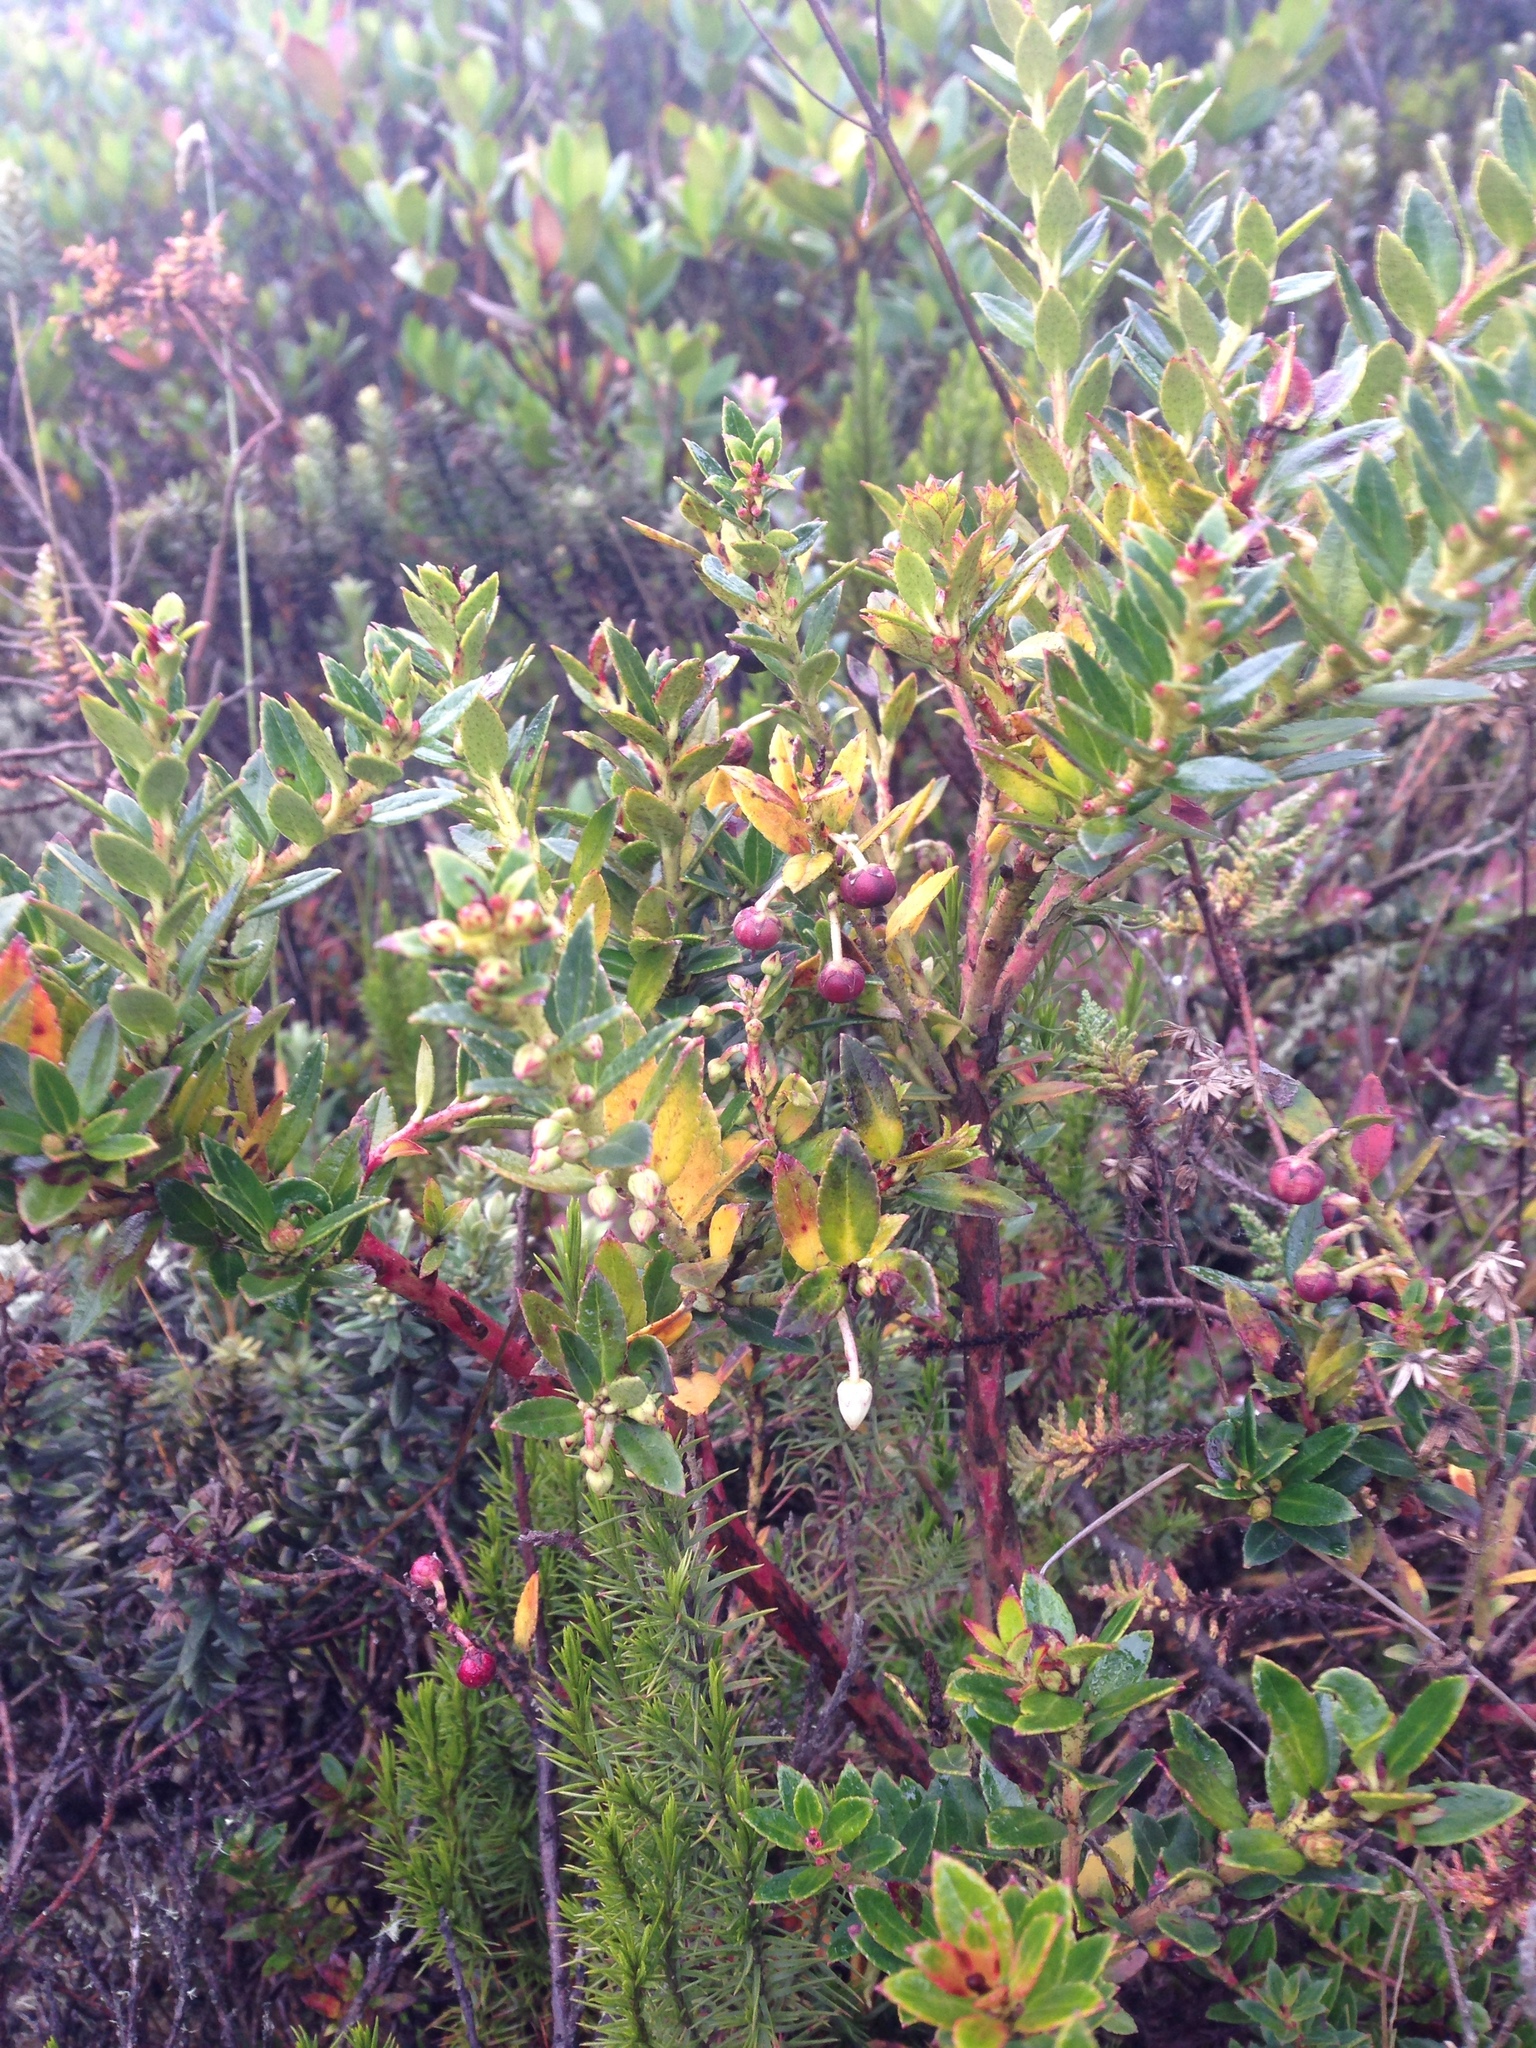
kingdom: Plantae
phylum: Tracheophyta
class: Magnoliopsida
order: Ericales
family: Ericaceae
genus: Gaultheria
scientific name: Gaultheria myrsinoides
